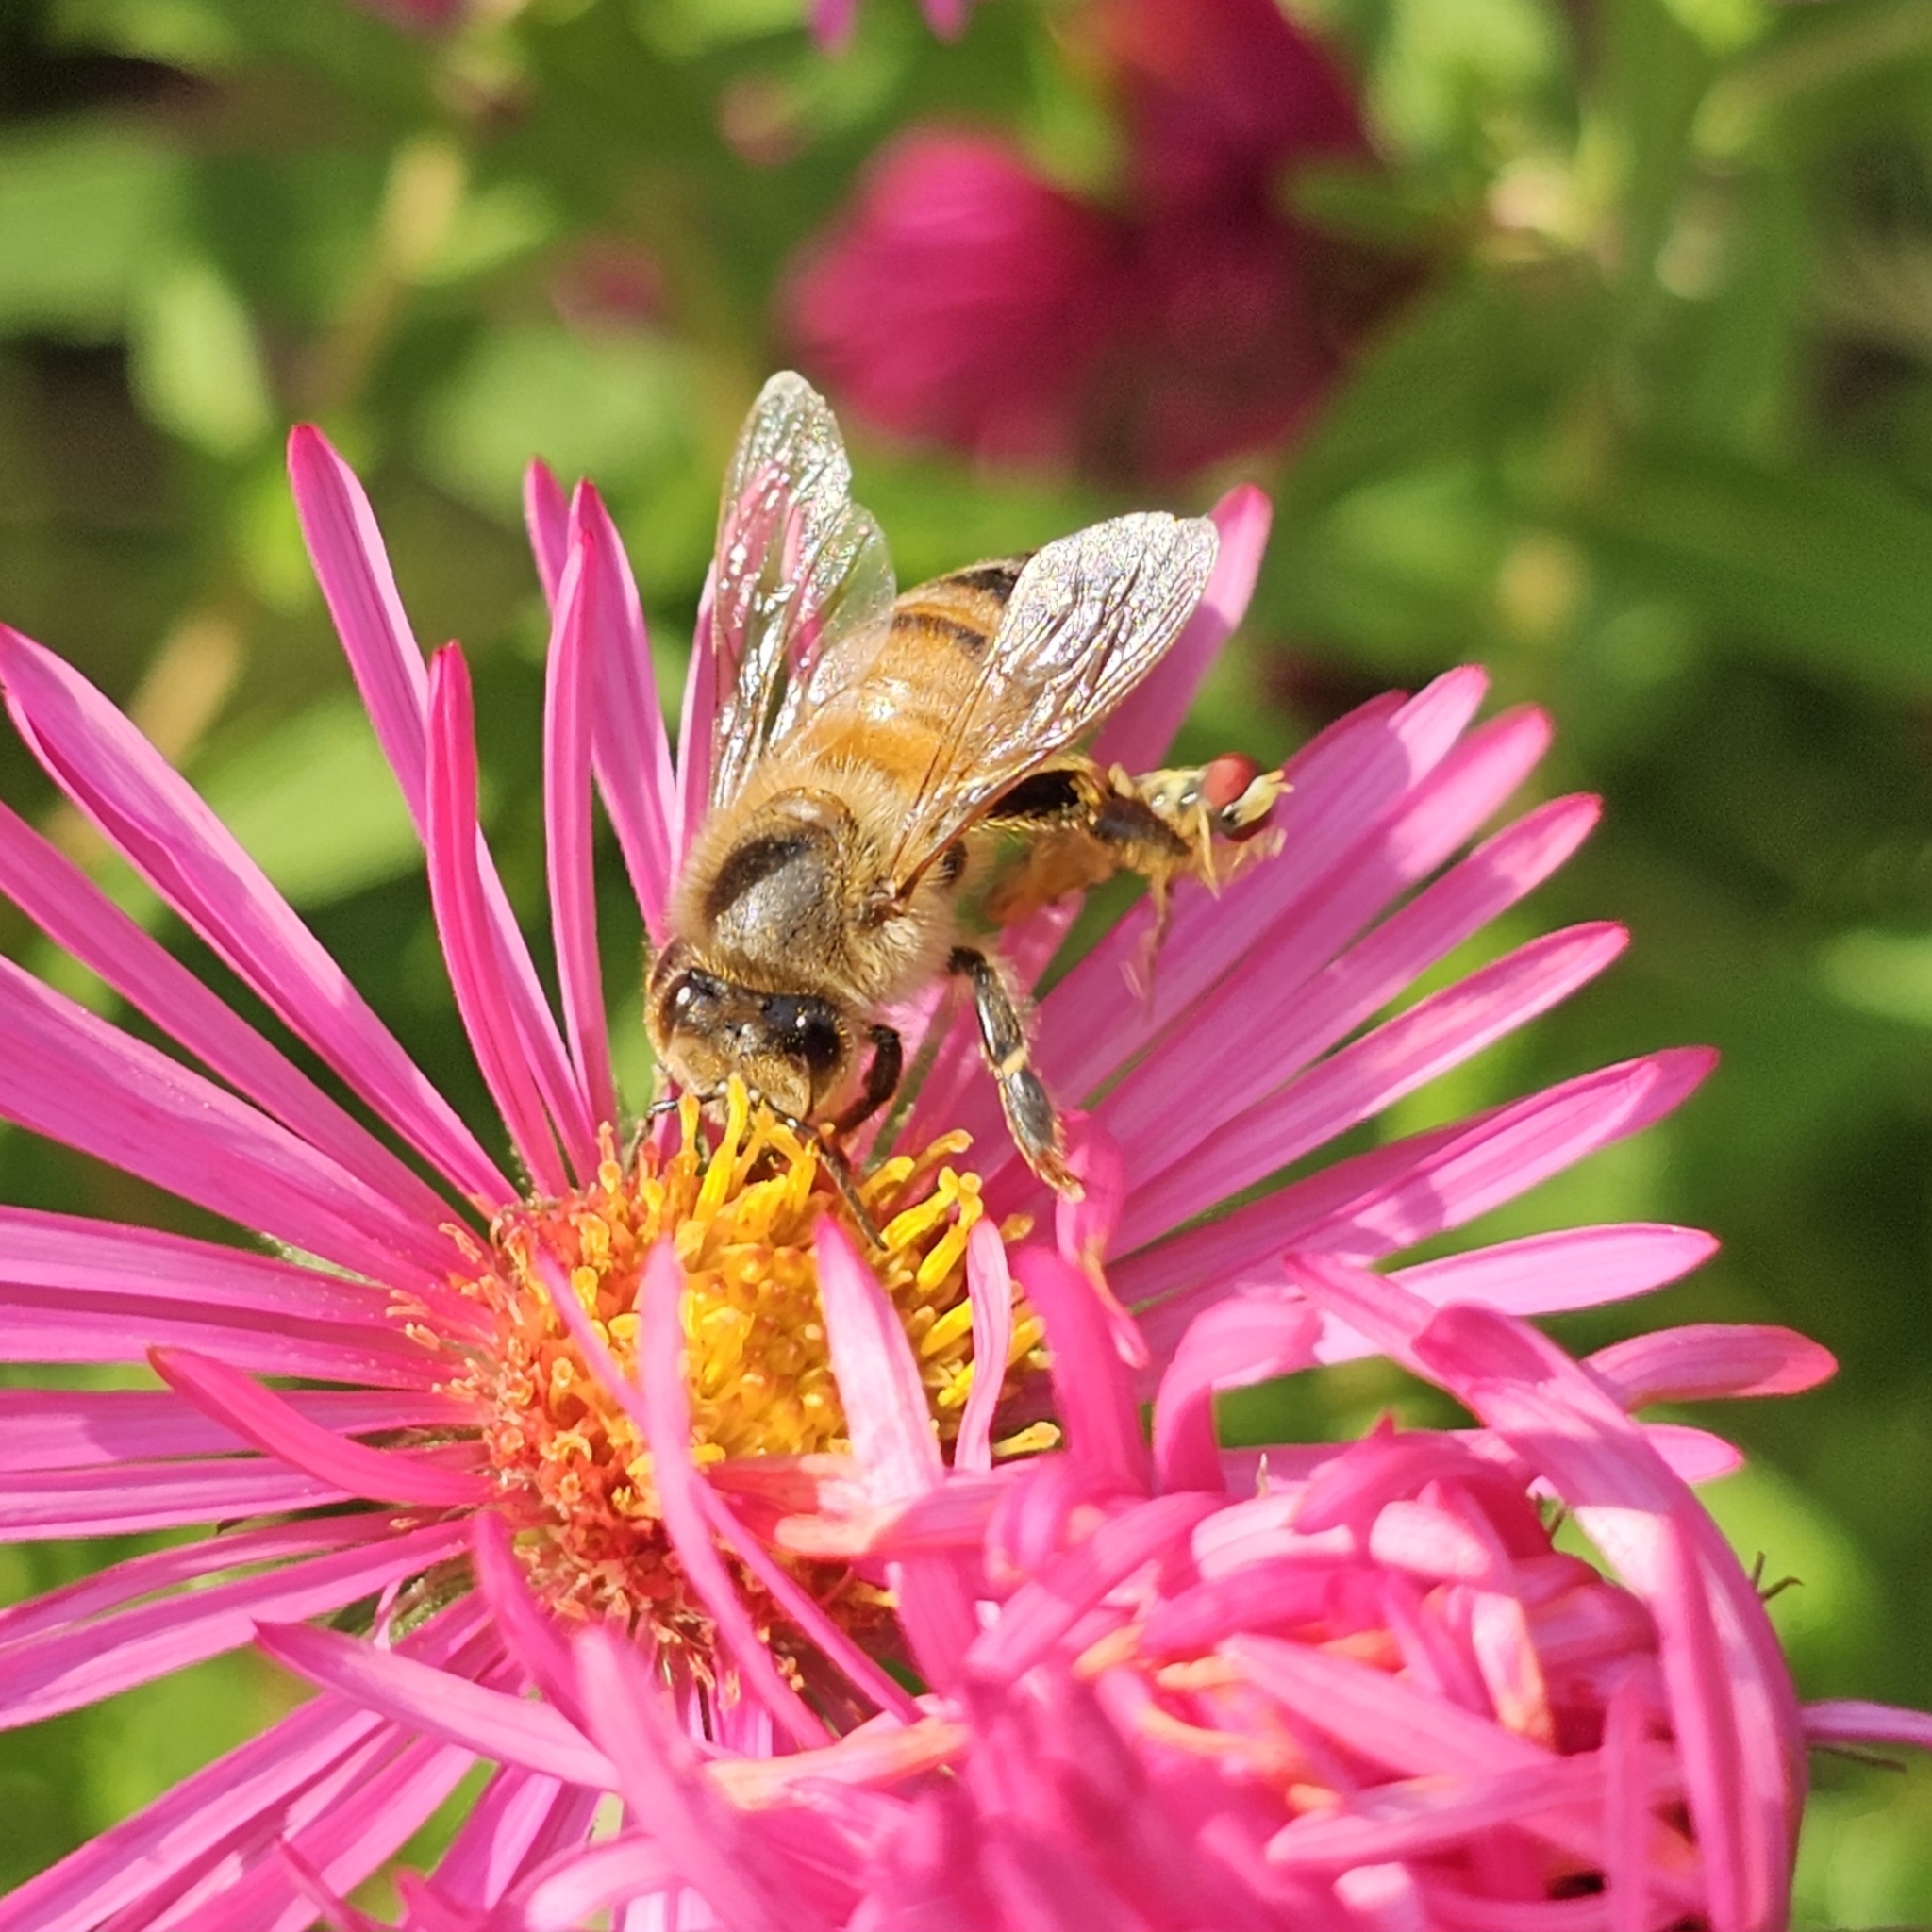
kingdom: Animalia
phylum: Arthropoda
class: Insecta
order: Hymenoptera
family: Apidae
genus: Apis
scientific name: Apis mellifera
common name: Honey bee
